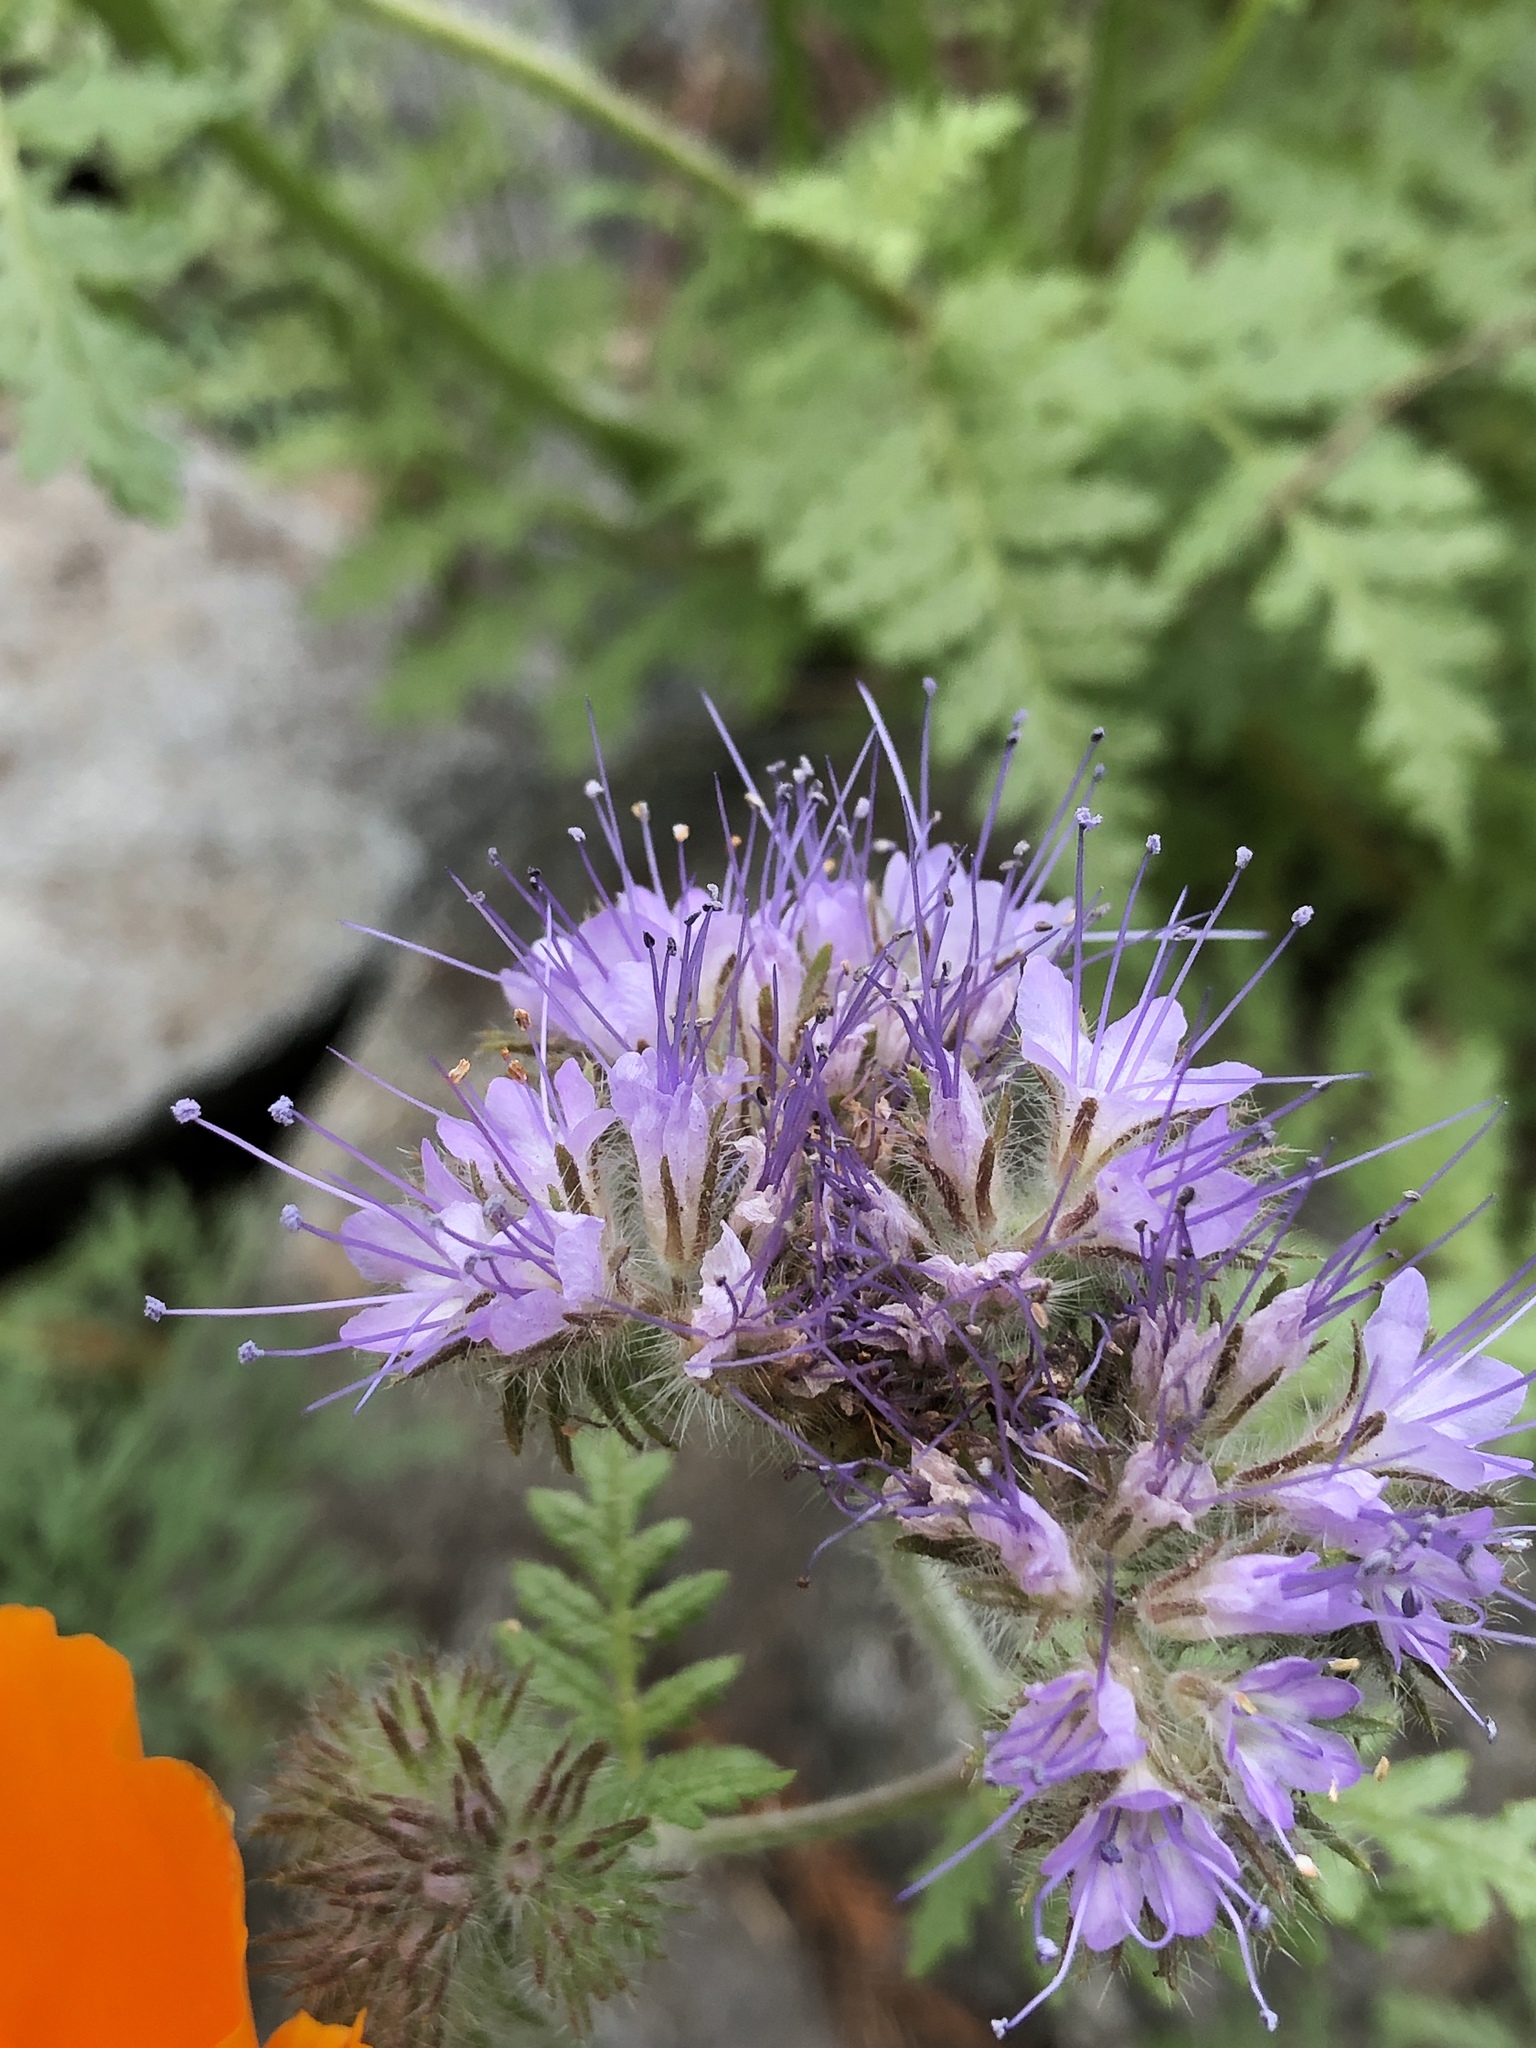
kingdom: Plantae
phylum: Tracheophyta
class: Magnoliopsida
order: Boraginales
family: Hydrophyllaceae
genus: Phacelia
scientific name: Phacelia tanacetifolia
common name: Phacelia
